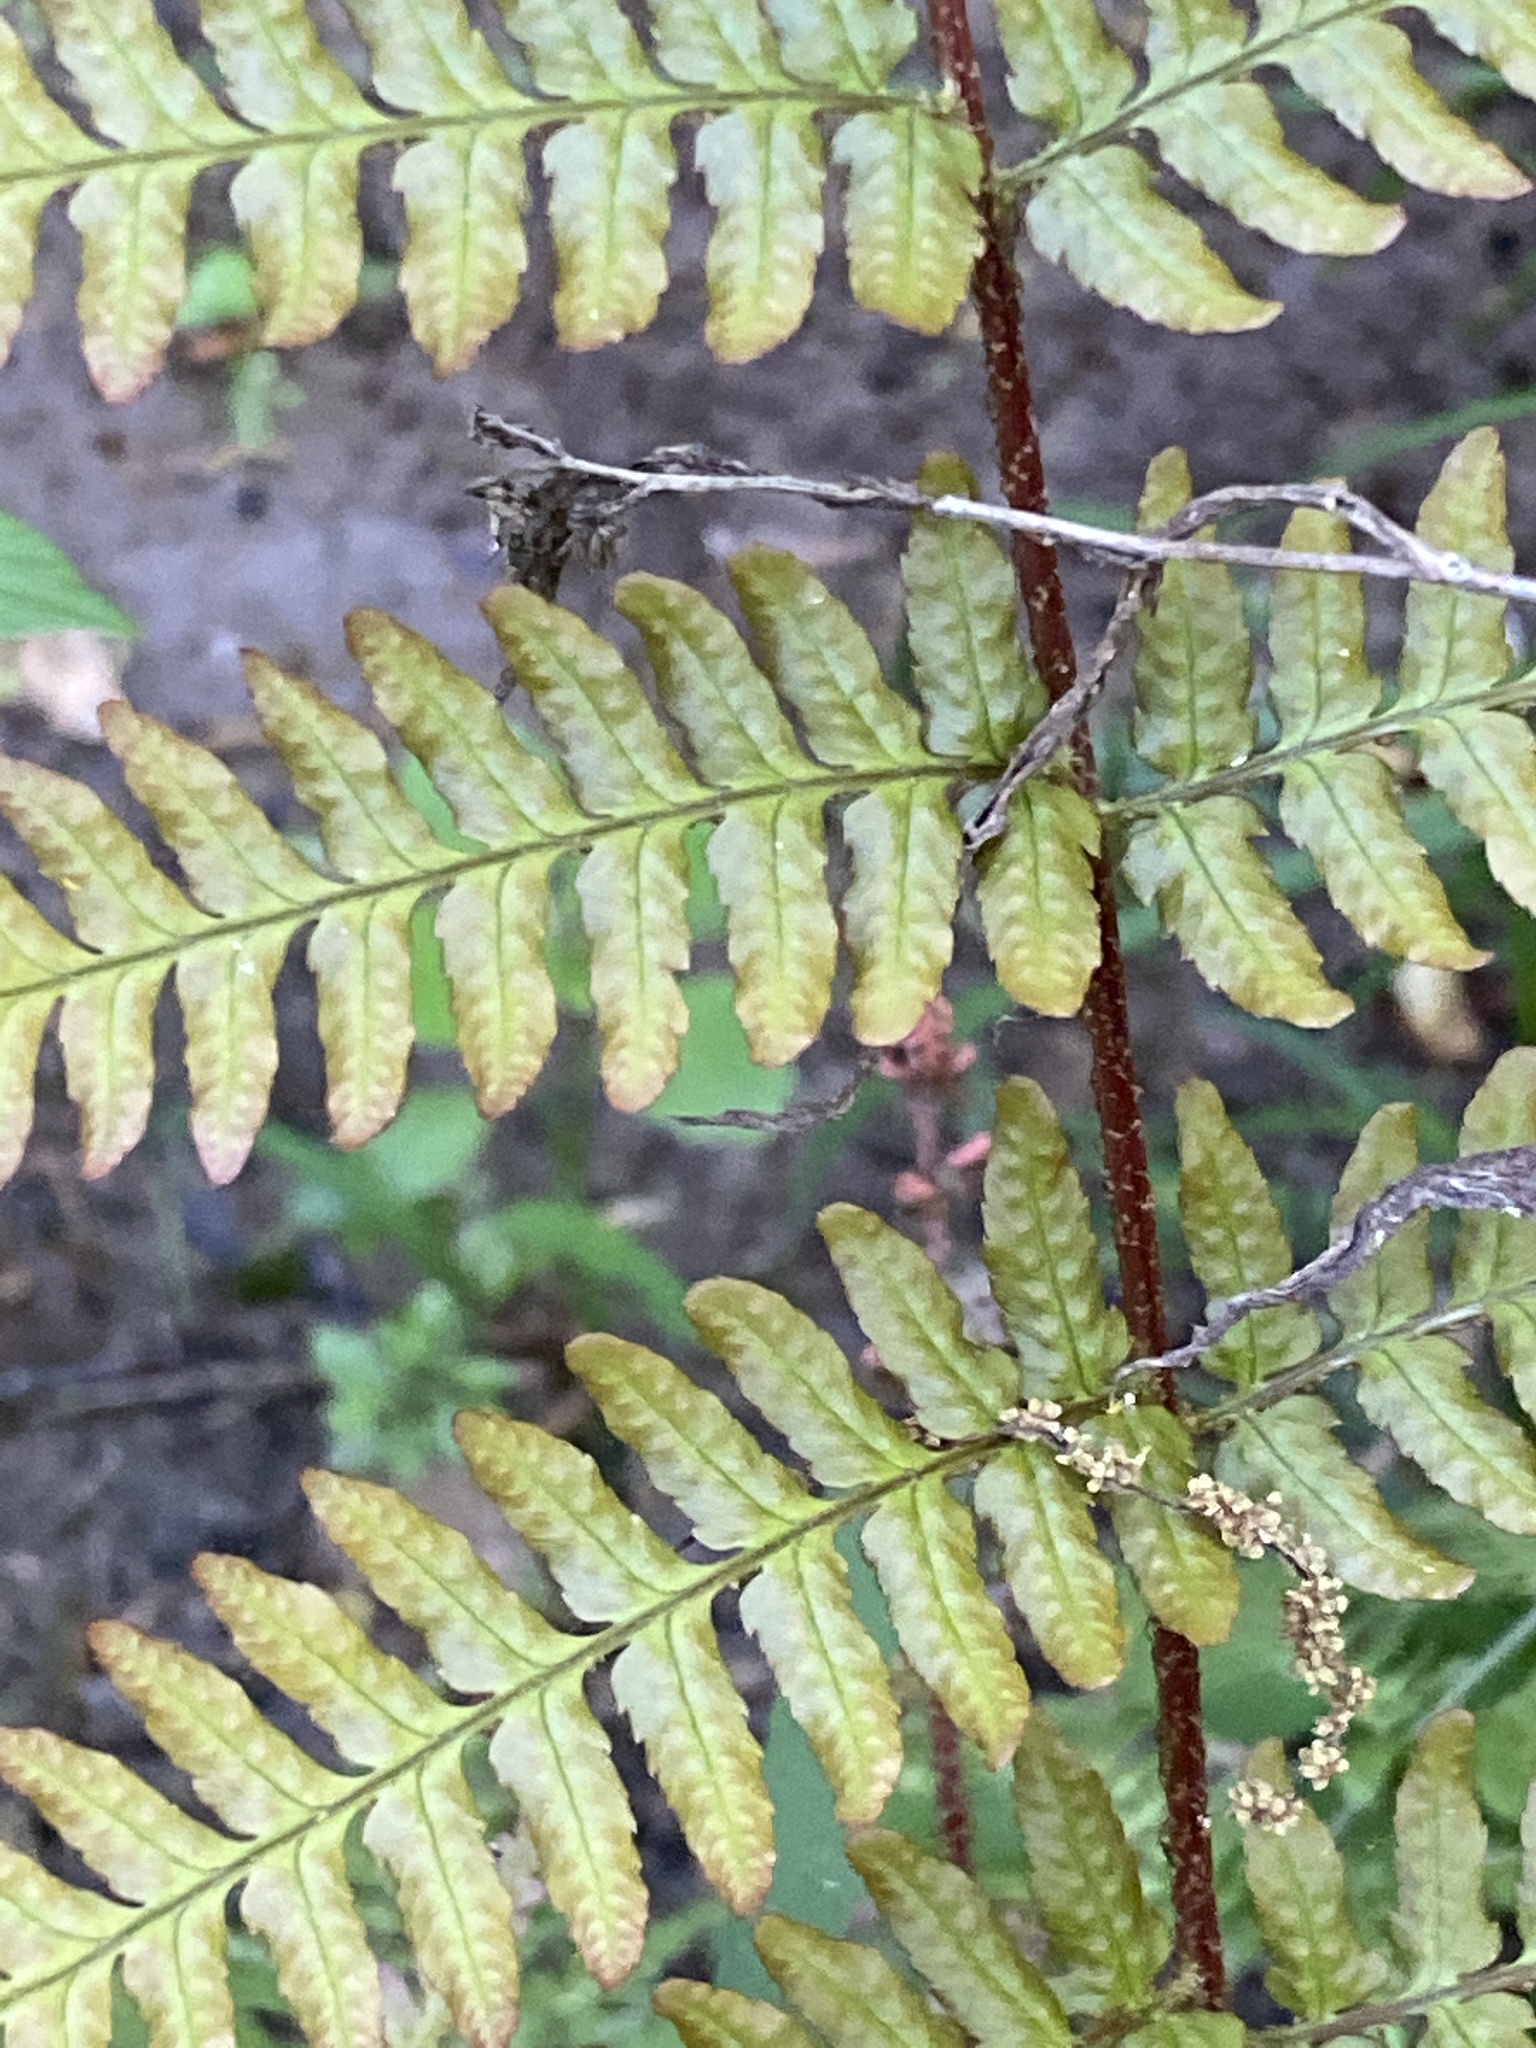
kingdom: Plantae
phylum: Tracheophyta
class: Polypodiopsida
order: Polypodiales
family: Dryopteridaceae
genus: Dryopteris
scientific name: Dryopteris erythrosora
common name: Autumn fern
